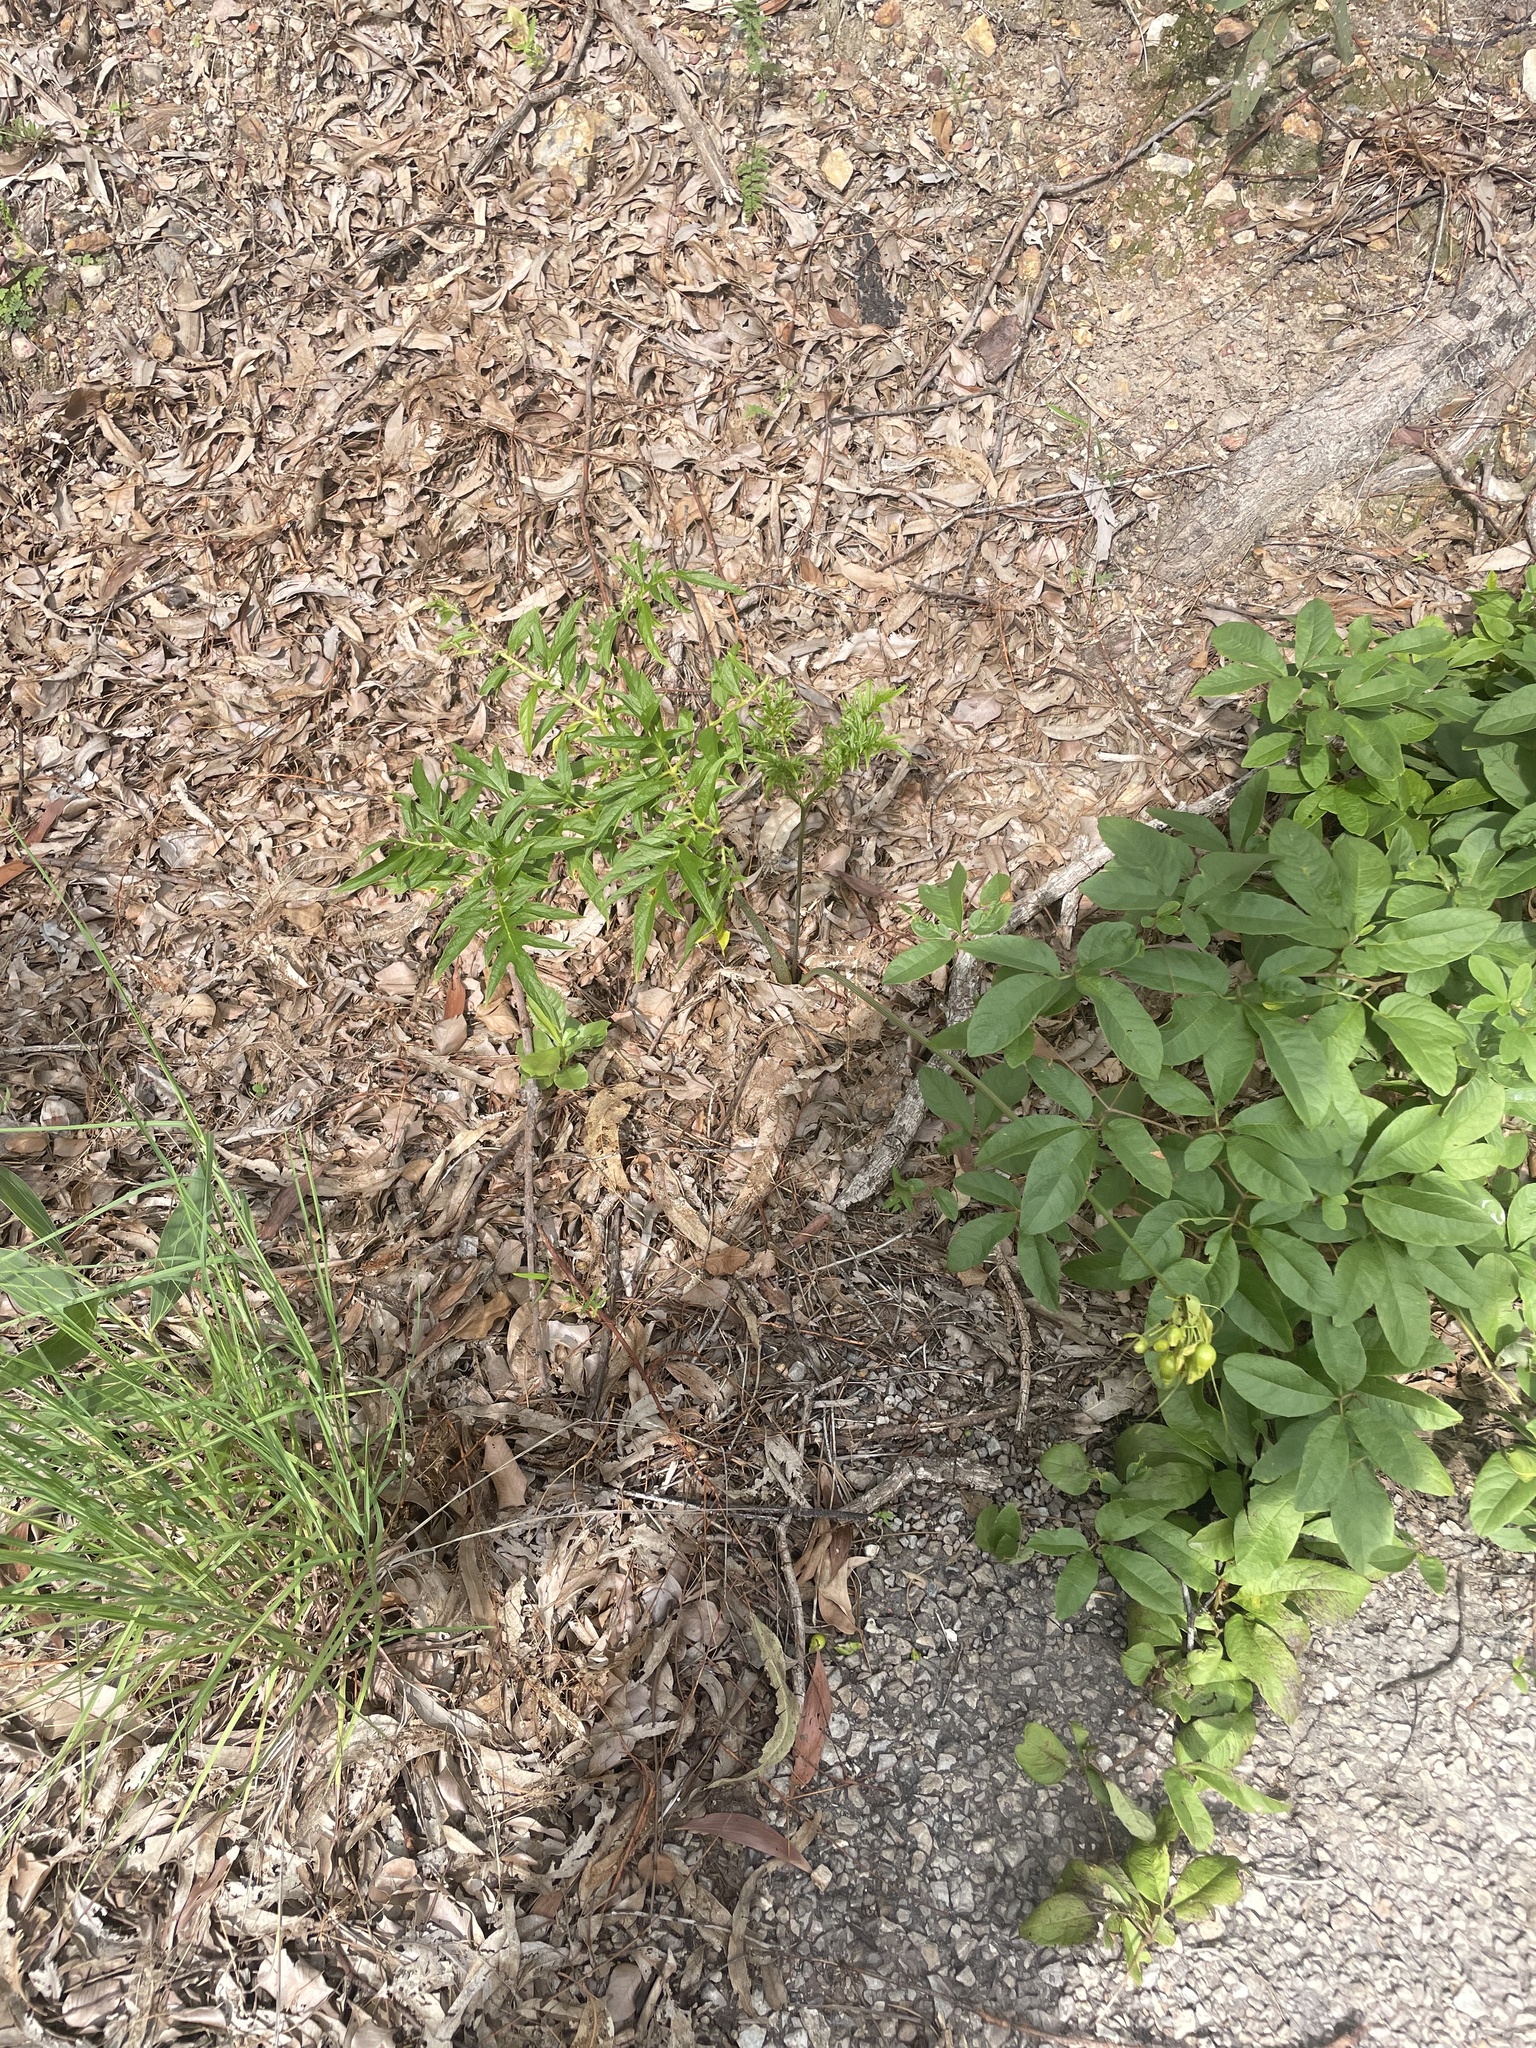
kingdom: Plantae
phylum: Tracheophyta
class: Liliopsida
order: Dioscoreales
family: Dioscoreaceae
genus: Tacca
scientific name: Tacca leontopetaloides
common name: Arrowroot
